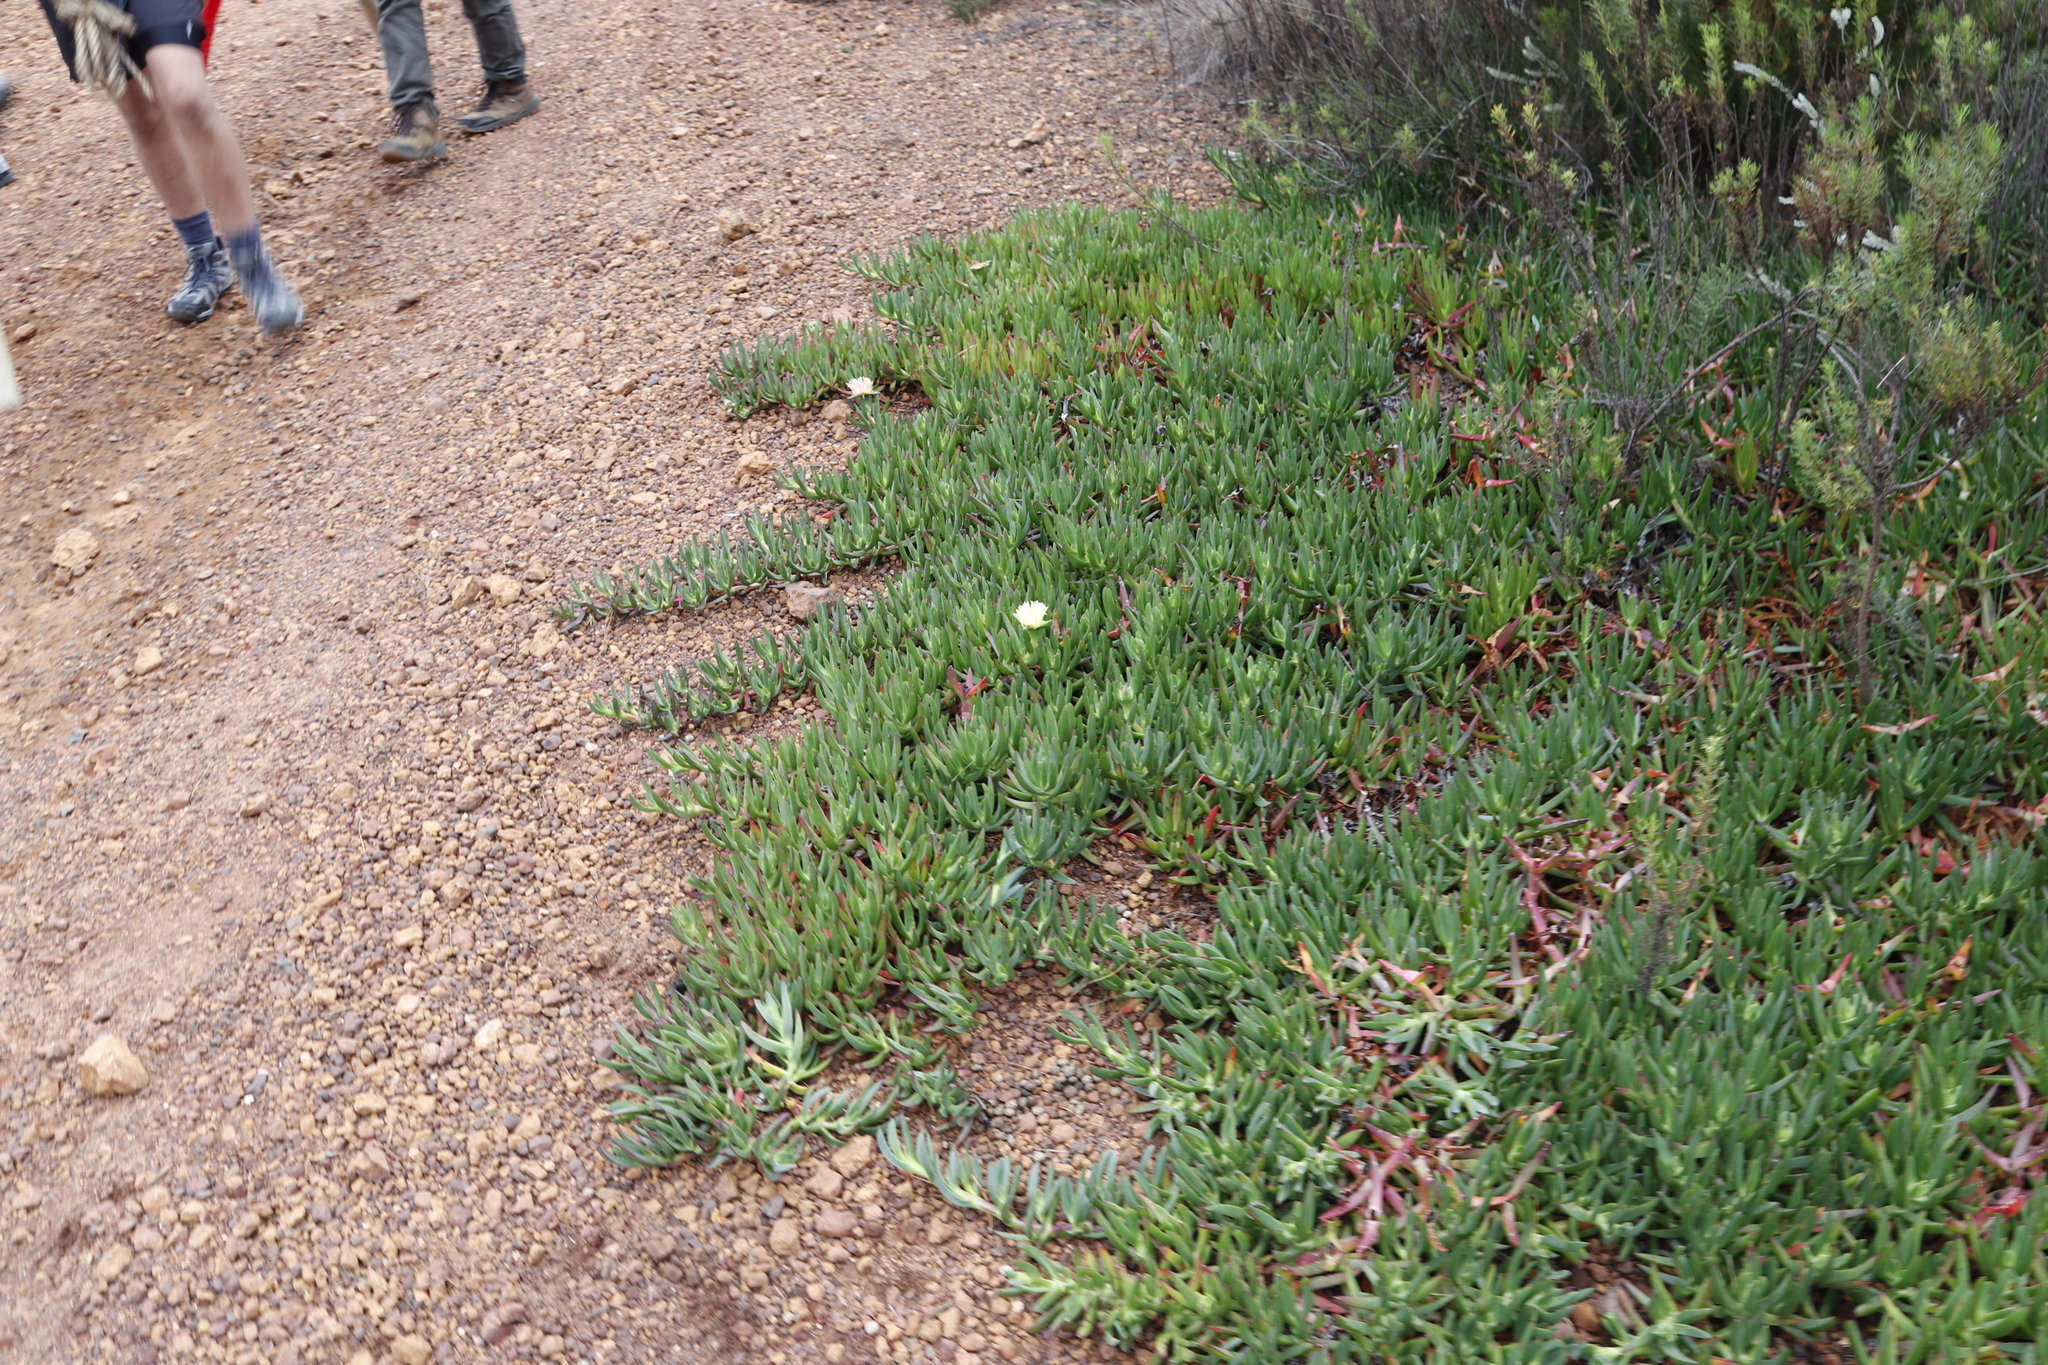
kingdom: Plantae
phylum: Tracheophyta
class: Magnoliopsida
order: Caryophyllales
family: Aizoaceae
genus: Carpobrotus
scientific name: Carpobrotus edulis
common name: Hottentot-fig
